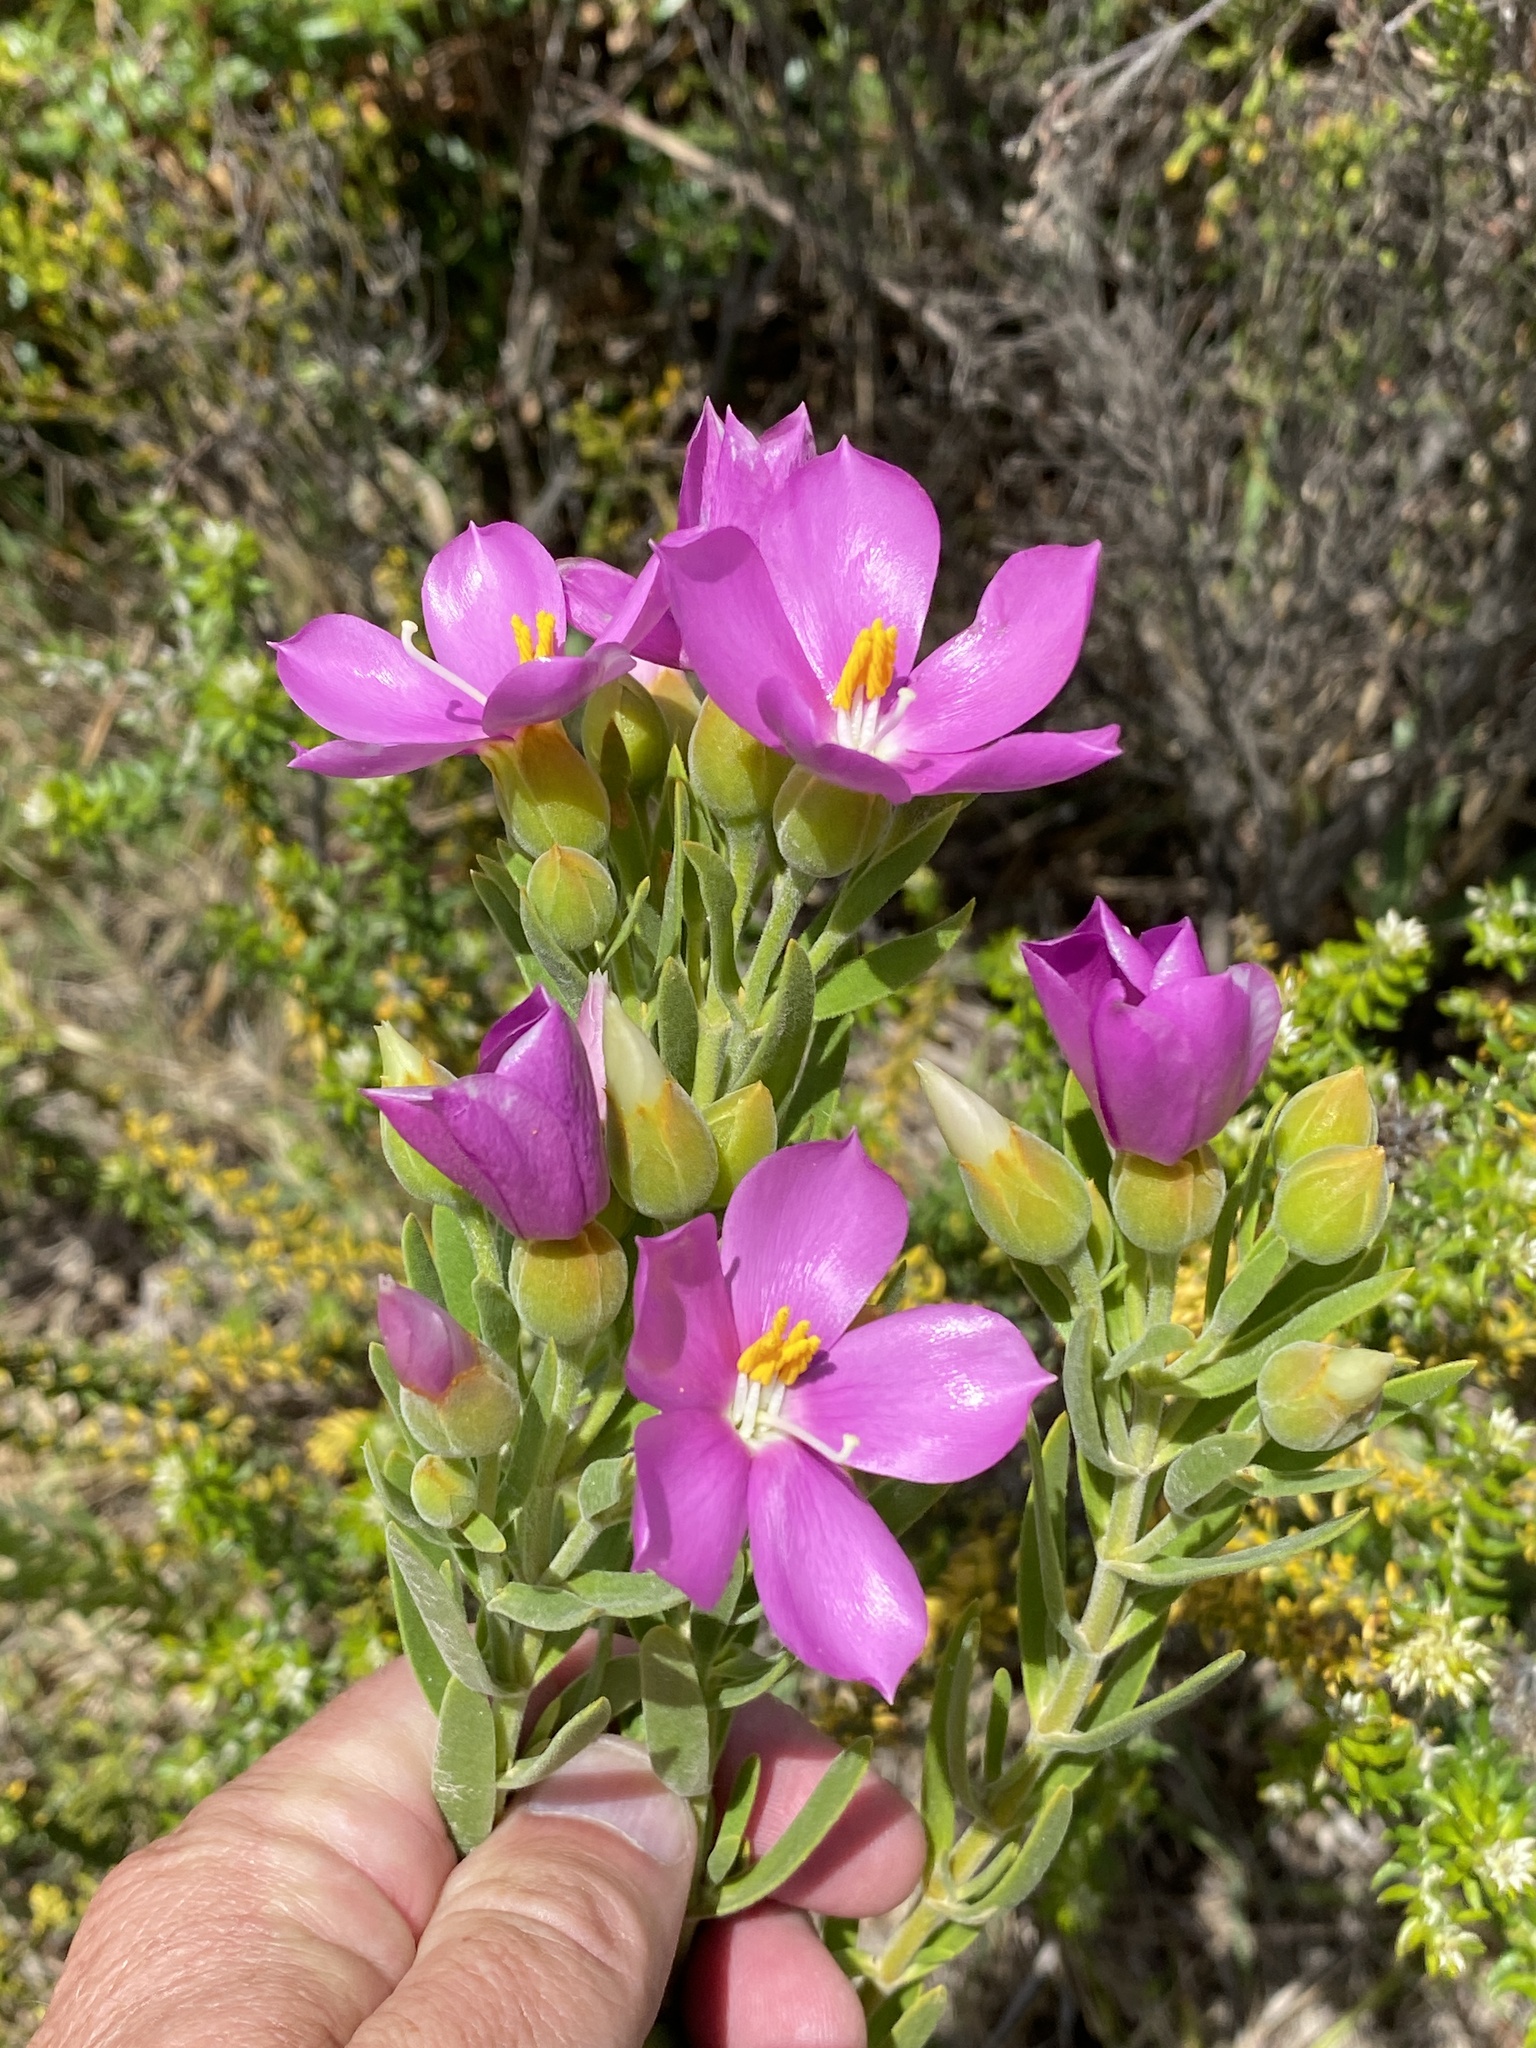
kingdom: Plantae
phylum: Tracheophyta
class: Magnoliopsida
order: Gentianales
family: Gentianaceae
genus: Orphium
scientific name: Orphium frutescens
